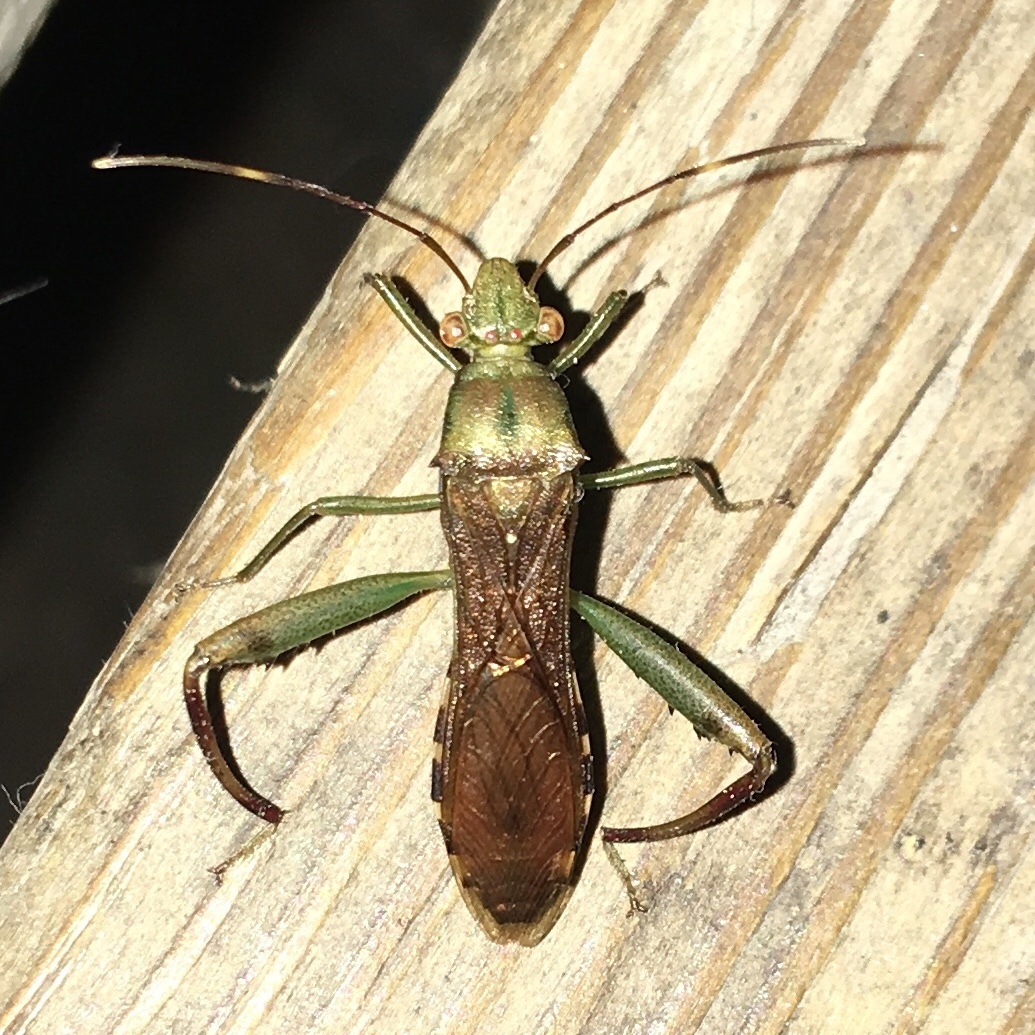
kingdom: Animalia
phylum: Arthropoda
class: Insecta
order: Hemiptera
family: Alydidae
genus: Hyalymenus
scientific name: Hyalymenus tarsatus
